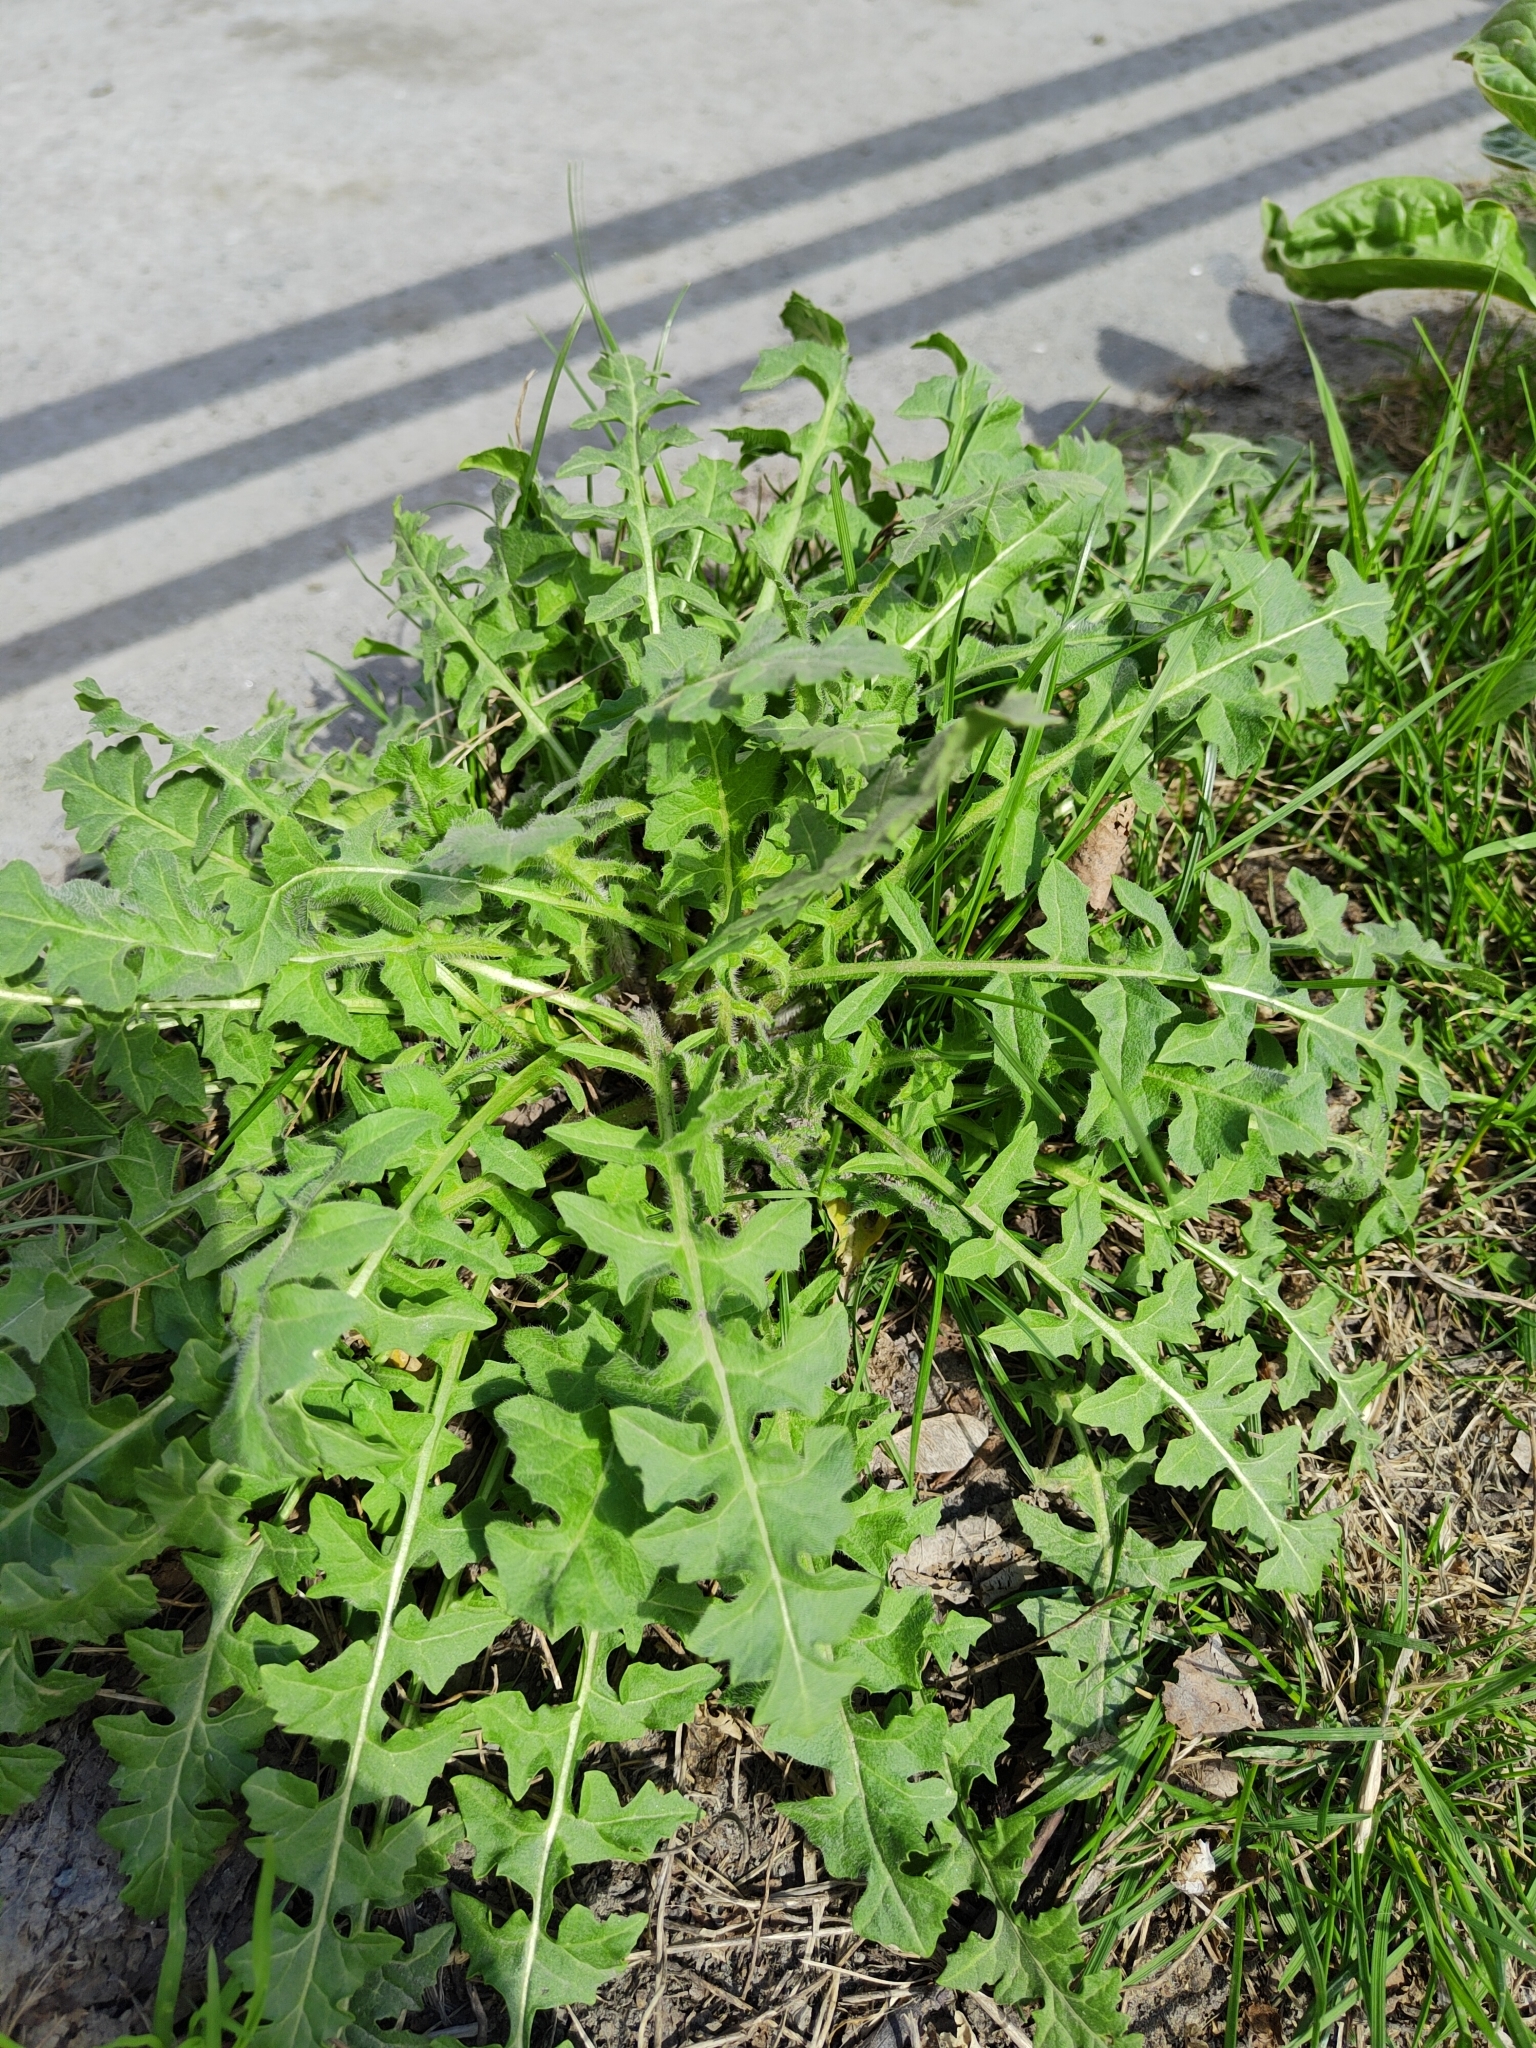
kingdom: Plantae
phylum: Tracheophyta
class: Magnoliopsida
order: Brassicales
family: Brassicaceae
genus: Sisymbrium
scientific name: Sisymbrium loeselii
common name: False london-rocket
